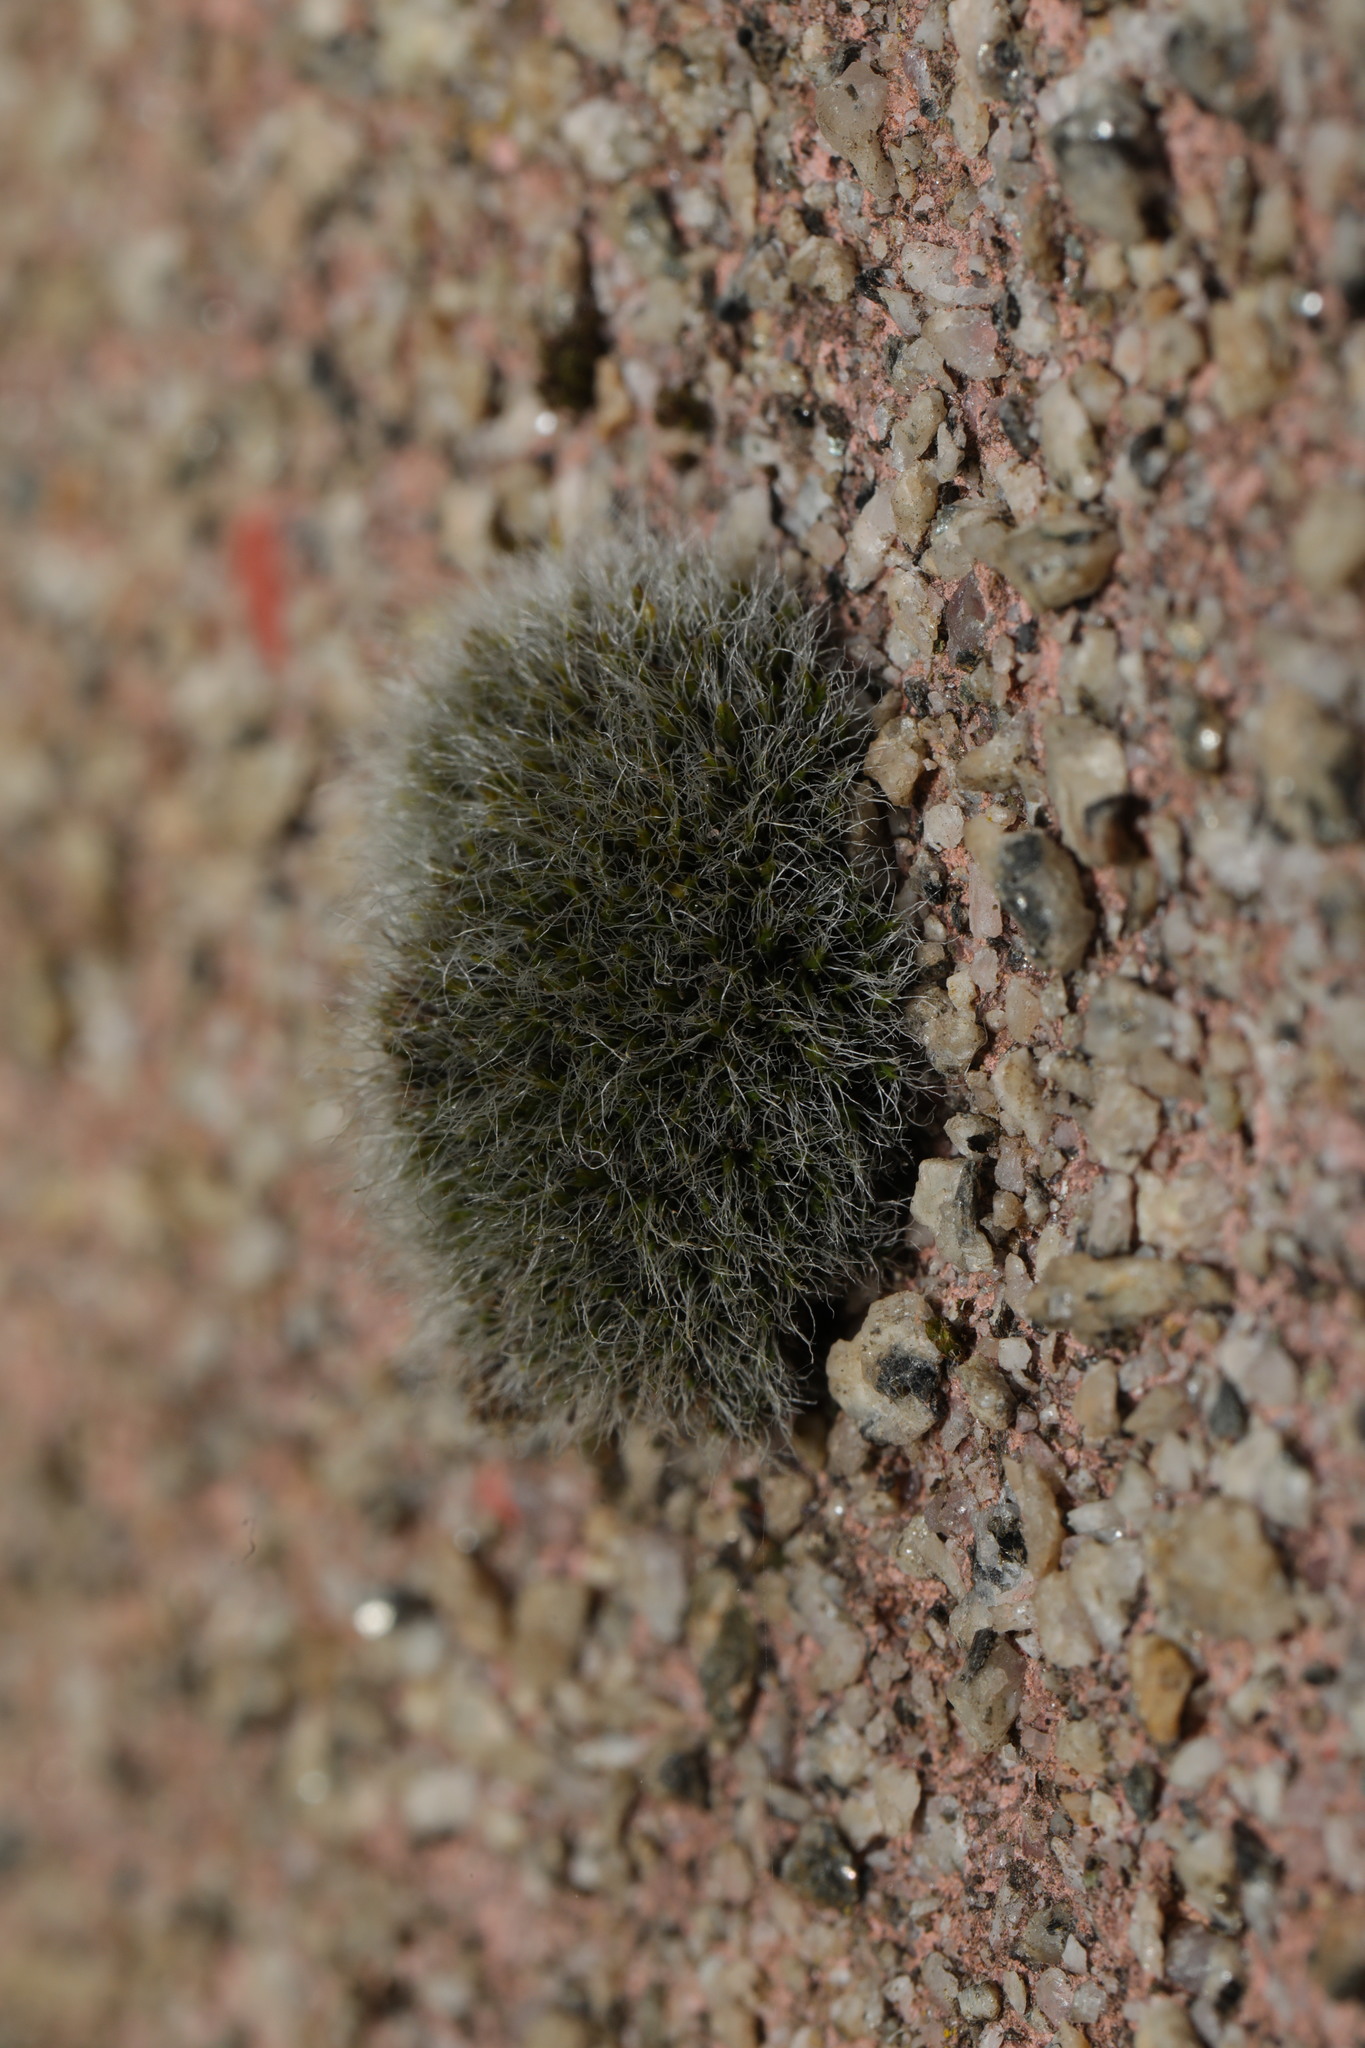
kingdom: Plantae
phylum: Bryophyta
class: Bryopsida
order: Grimmiales
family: Grimmiaceae
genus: Grimmia
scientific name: Grimmia pulvinata
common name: Grey-cushioned grimmia
